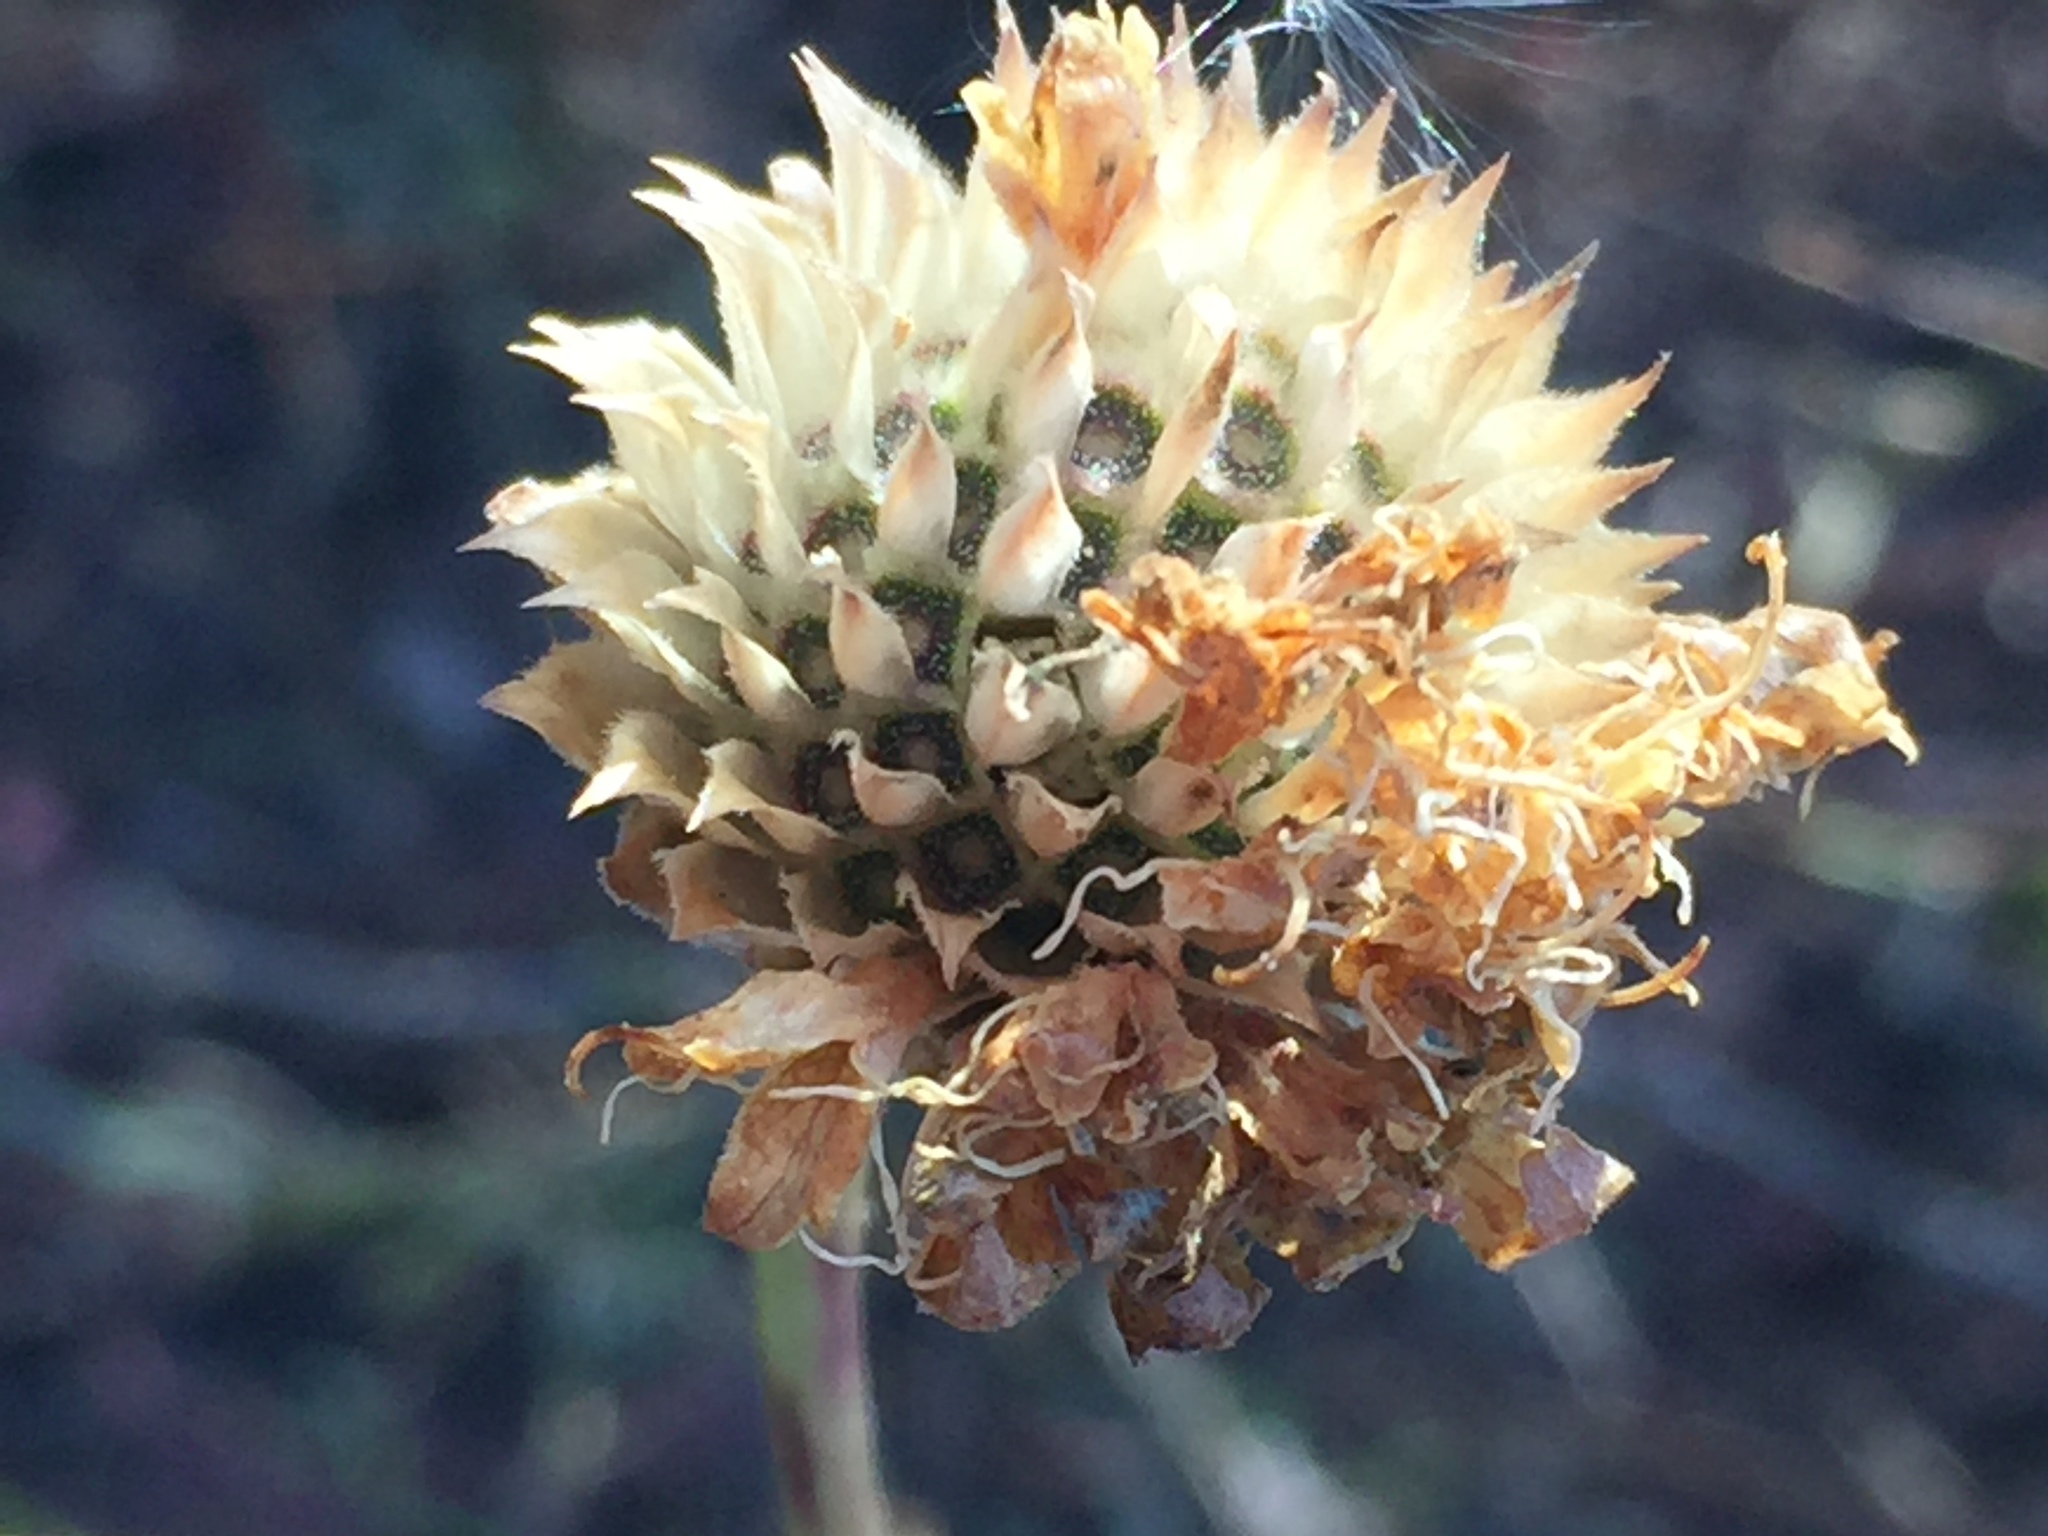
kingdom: Plantae
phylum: Tracheophyta
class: Magnoliopsida
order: Dipsacales
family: Caprifoliaceae
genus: Cephalaria
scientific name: Cephalaria uralensis
